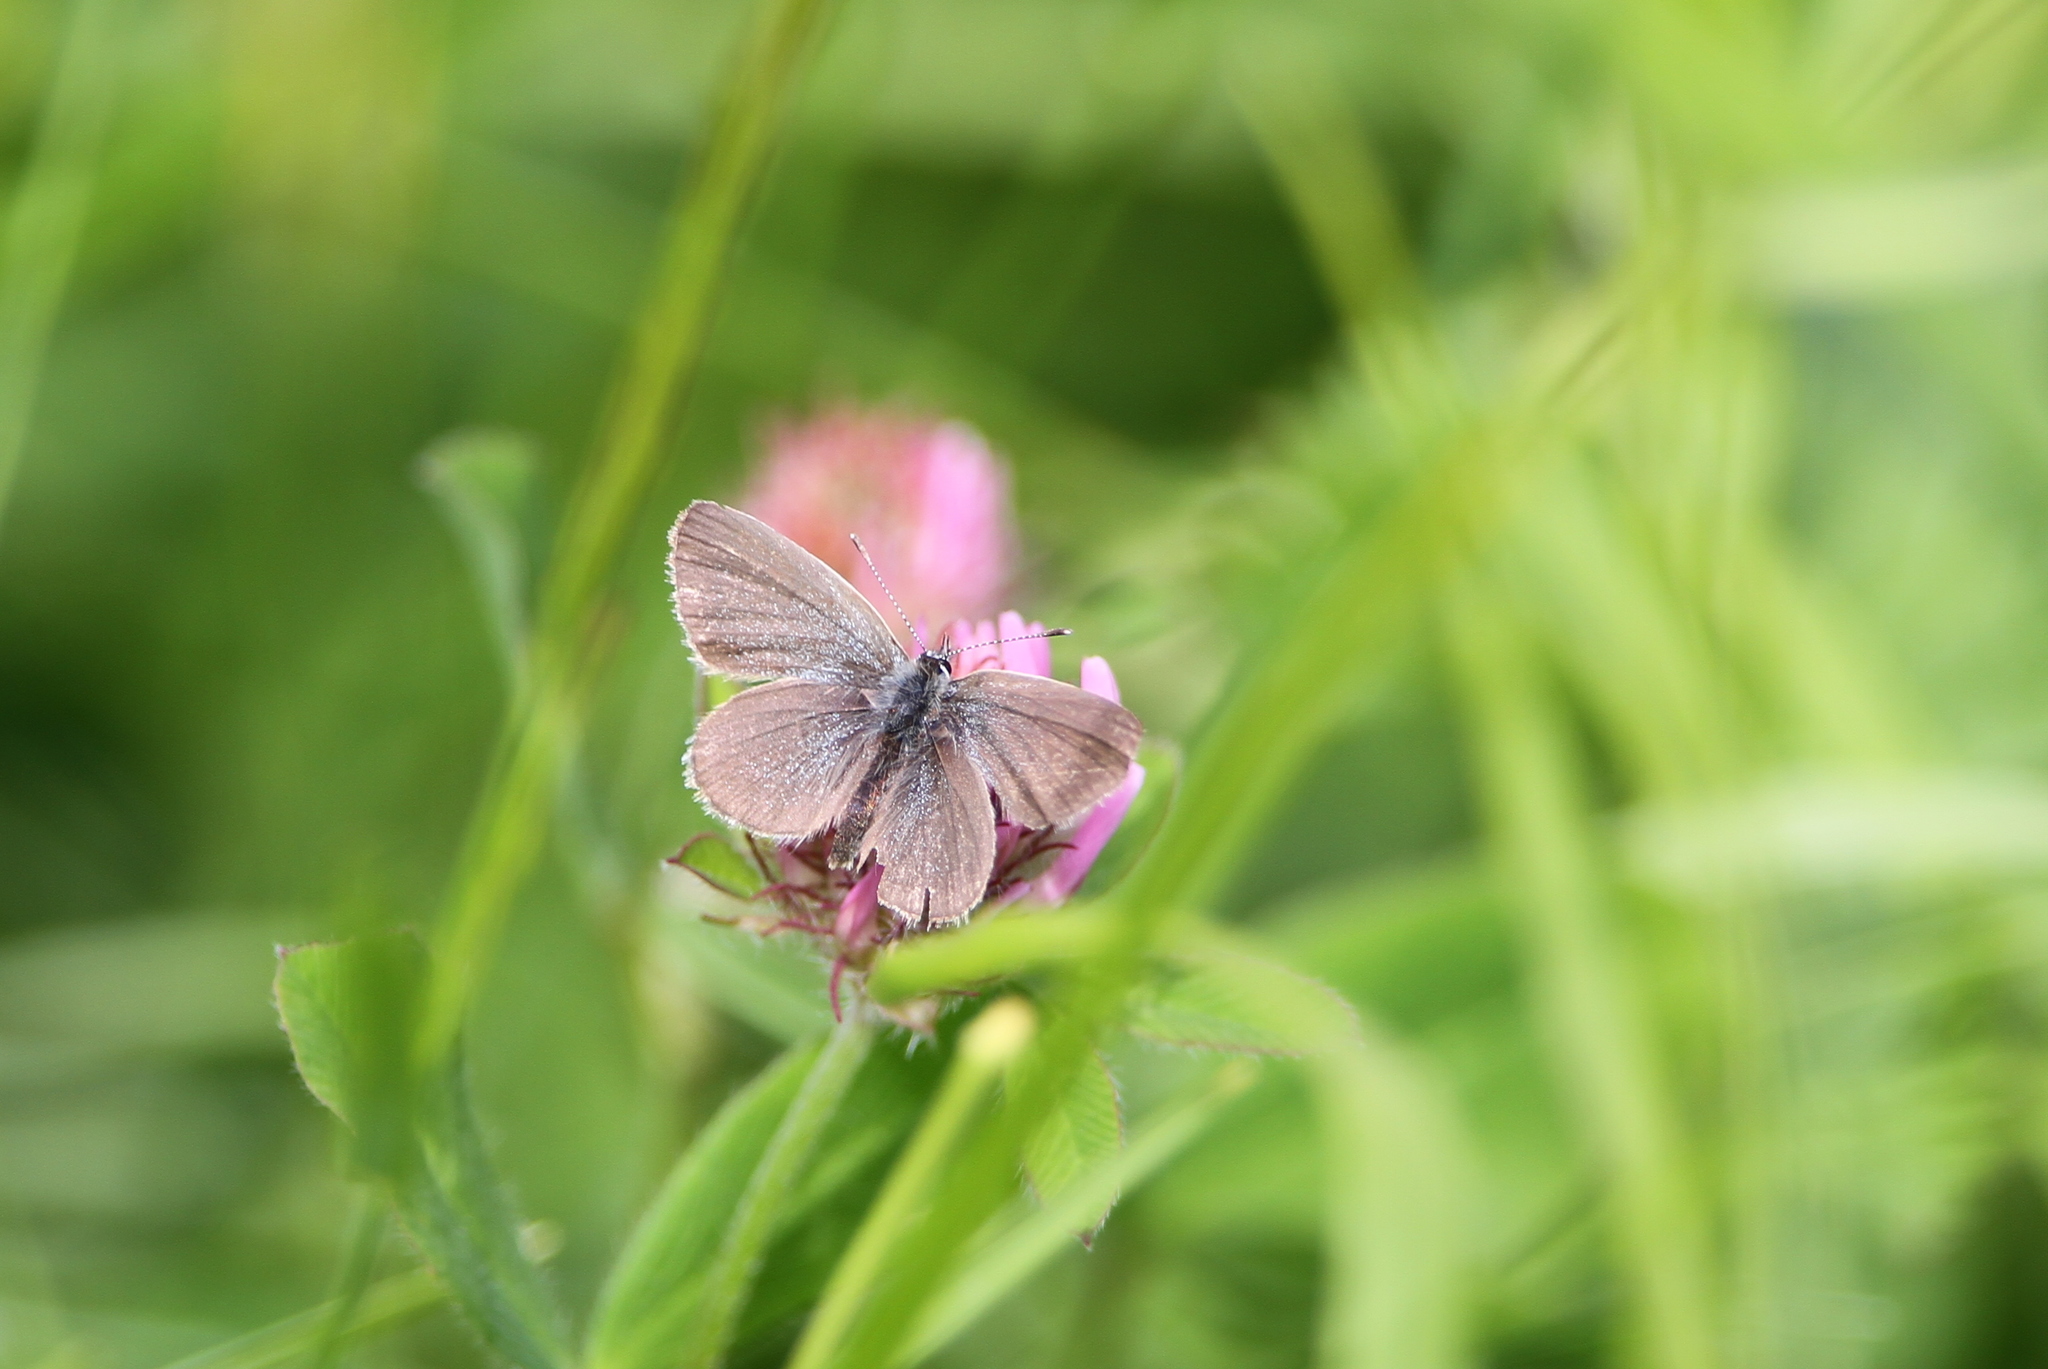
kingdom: Animalia
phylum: Arthropoda
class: Insecta
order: Lepidoptera
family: Lycaenidae
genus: Cupido
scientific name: Cupido minimus
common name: Small blue
